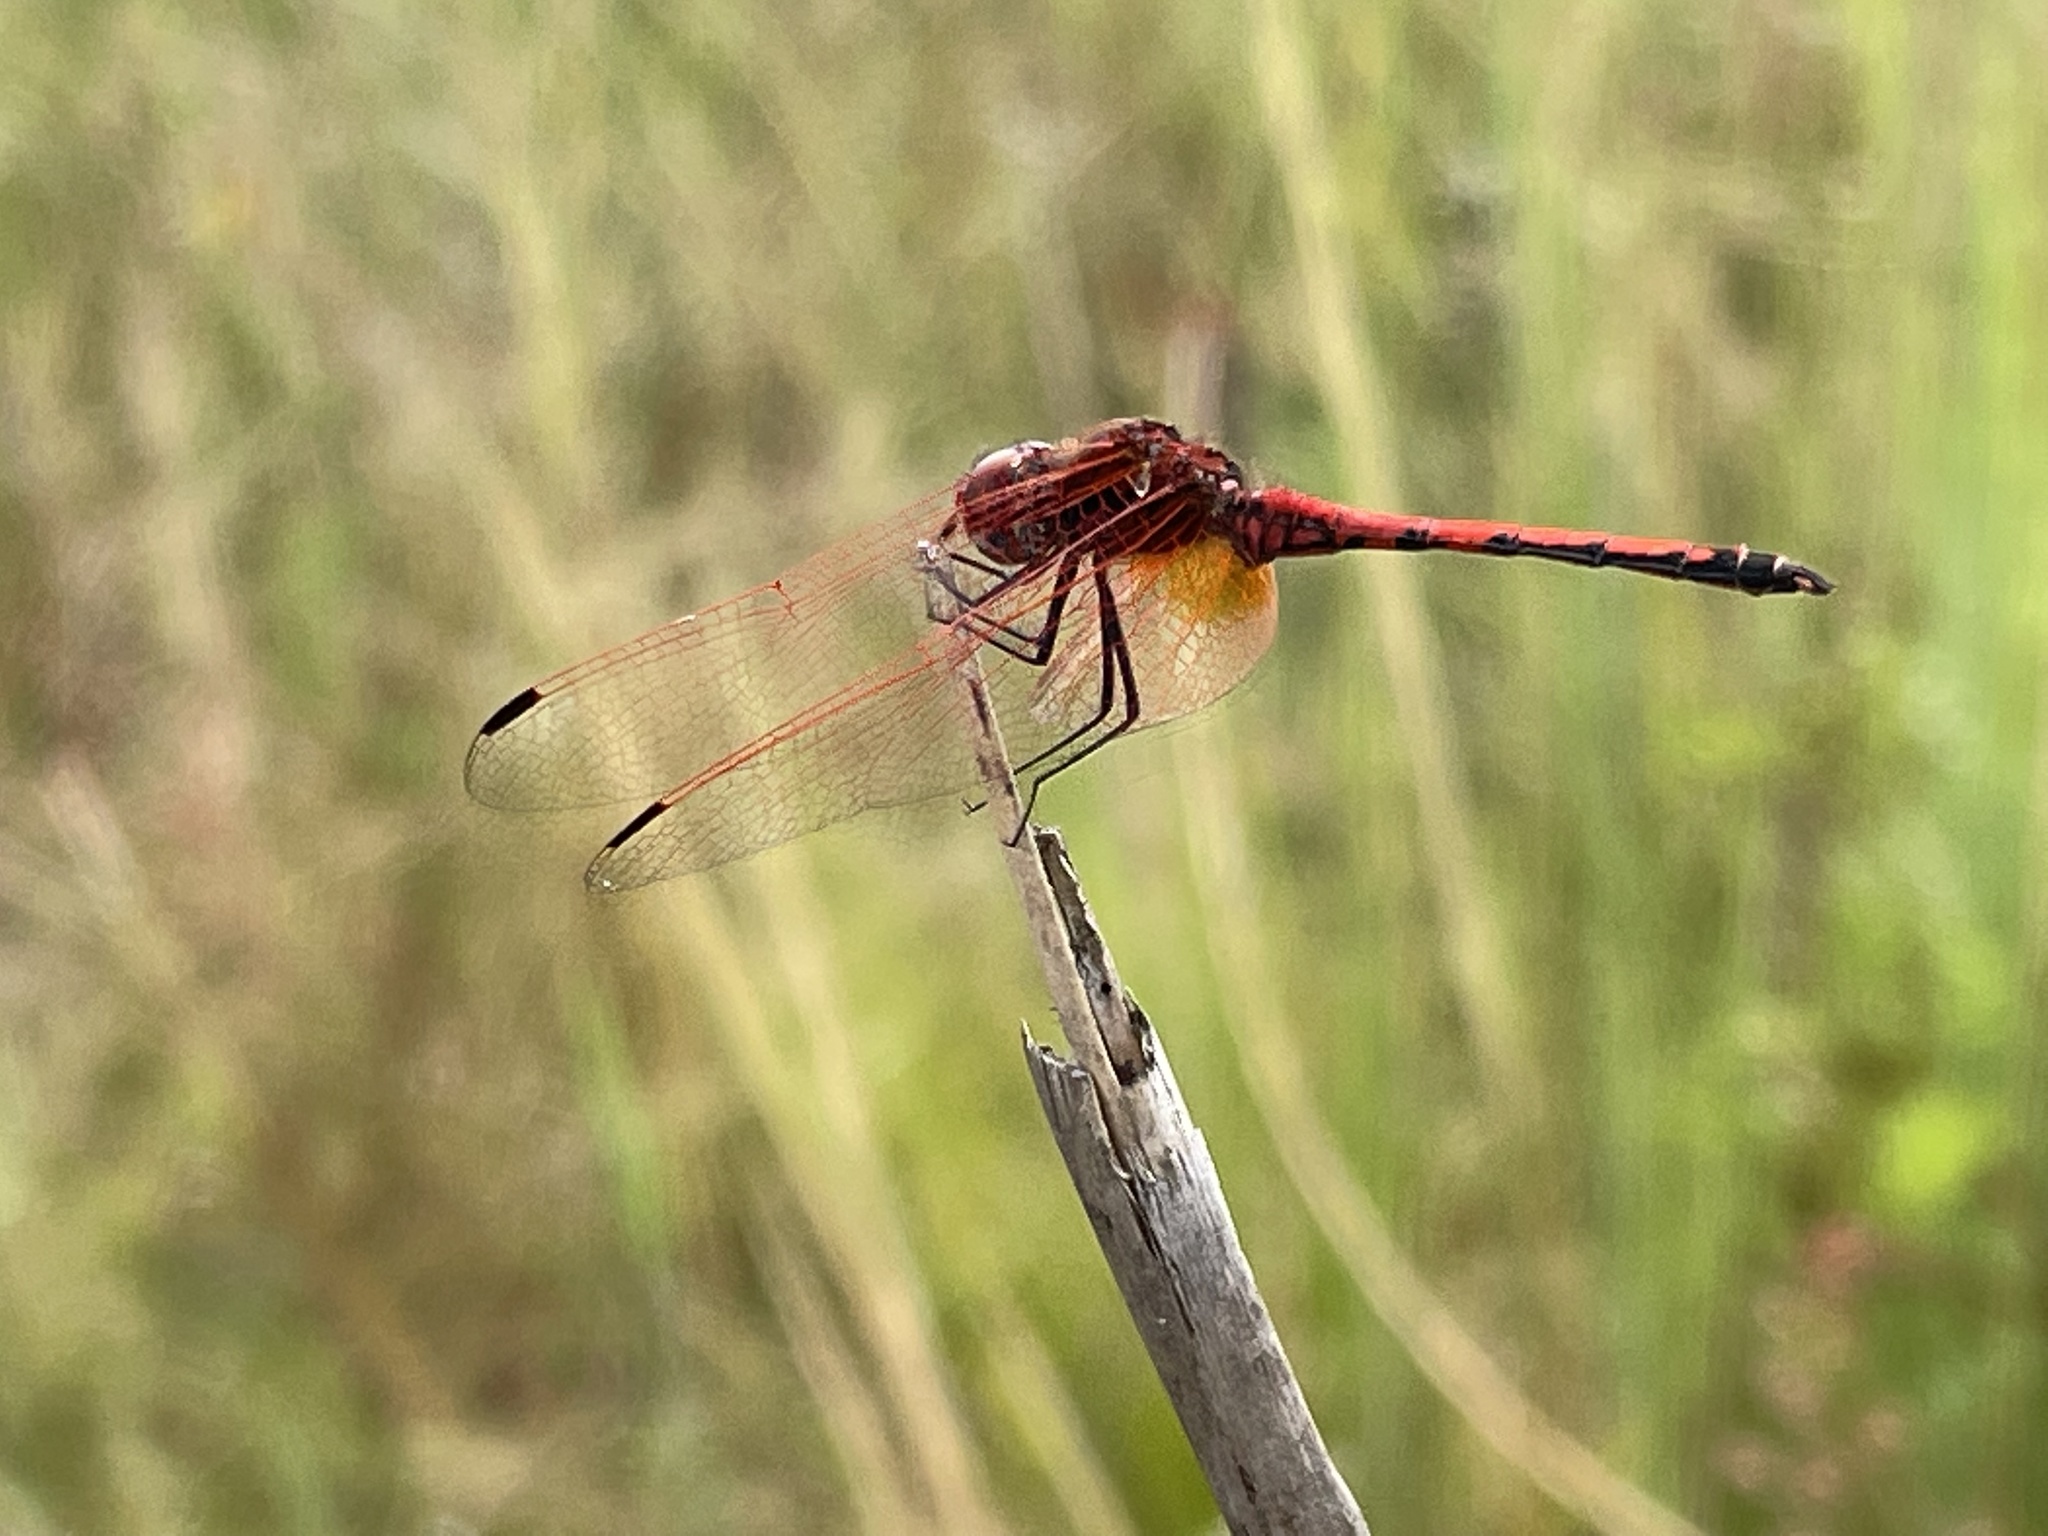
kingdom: Animalia
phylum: Arthropoda
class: Insecta
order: Odonata
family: Libellulidae
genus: Trithemis
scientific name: Trithemis arteriosa
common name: Red-veined dropwing
